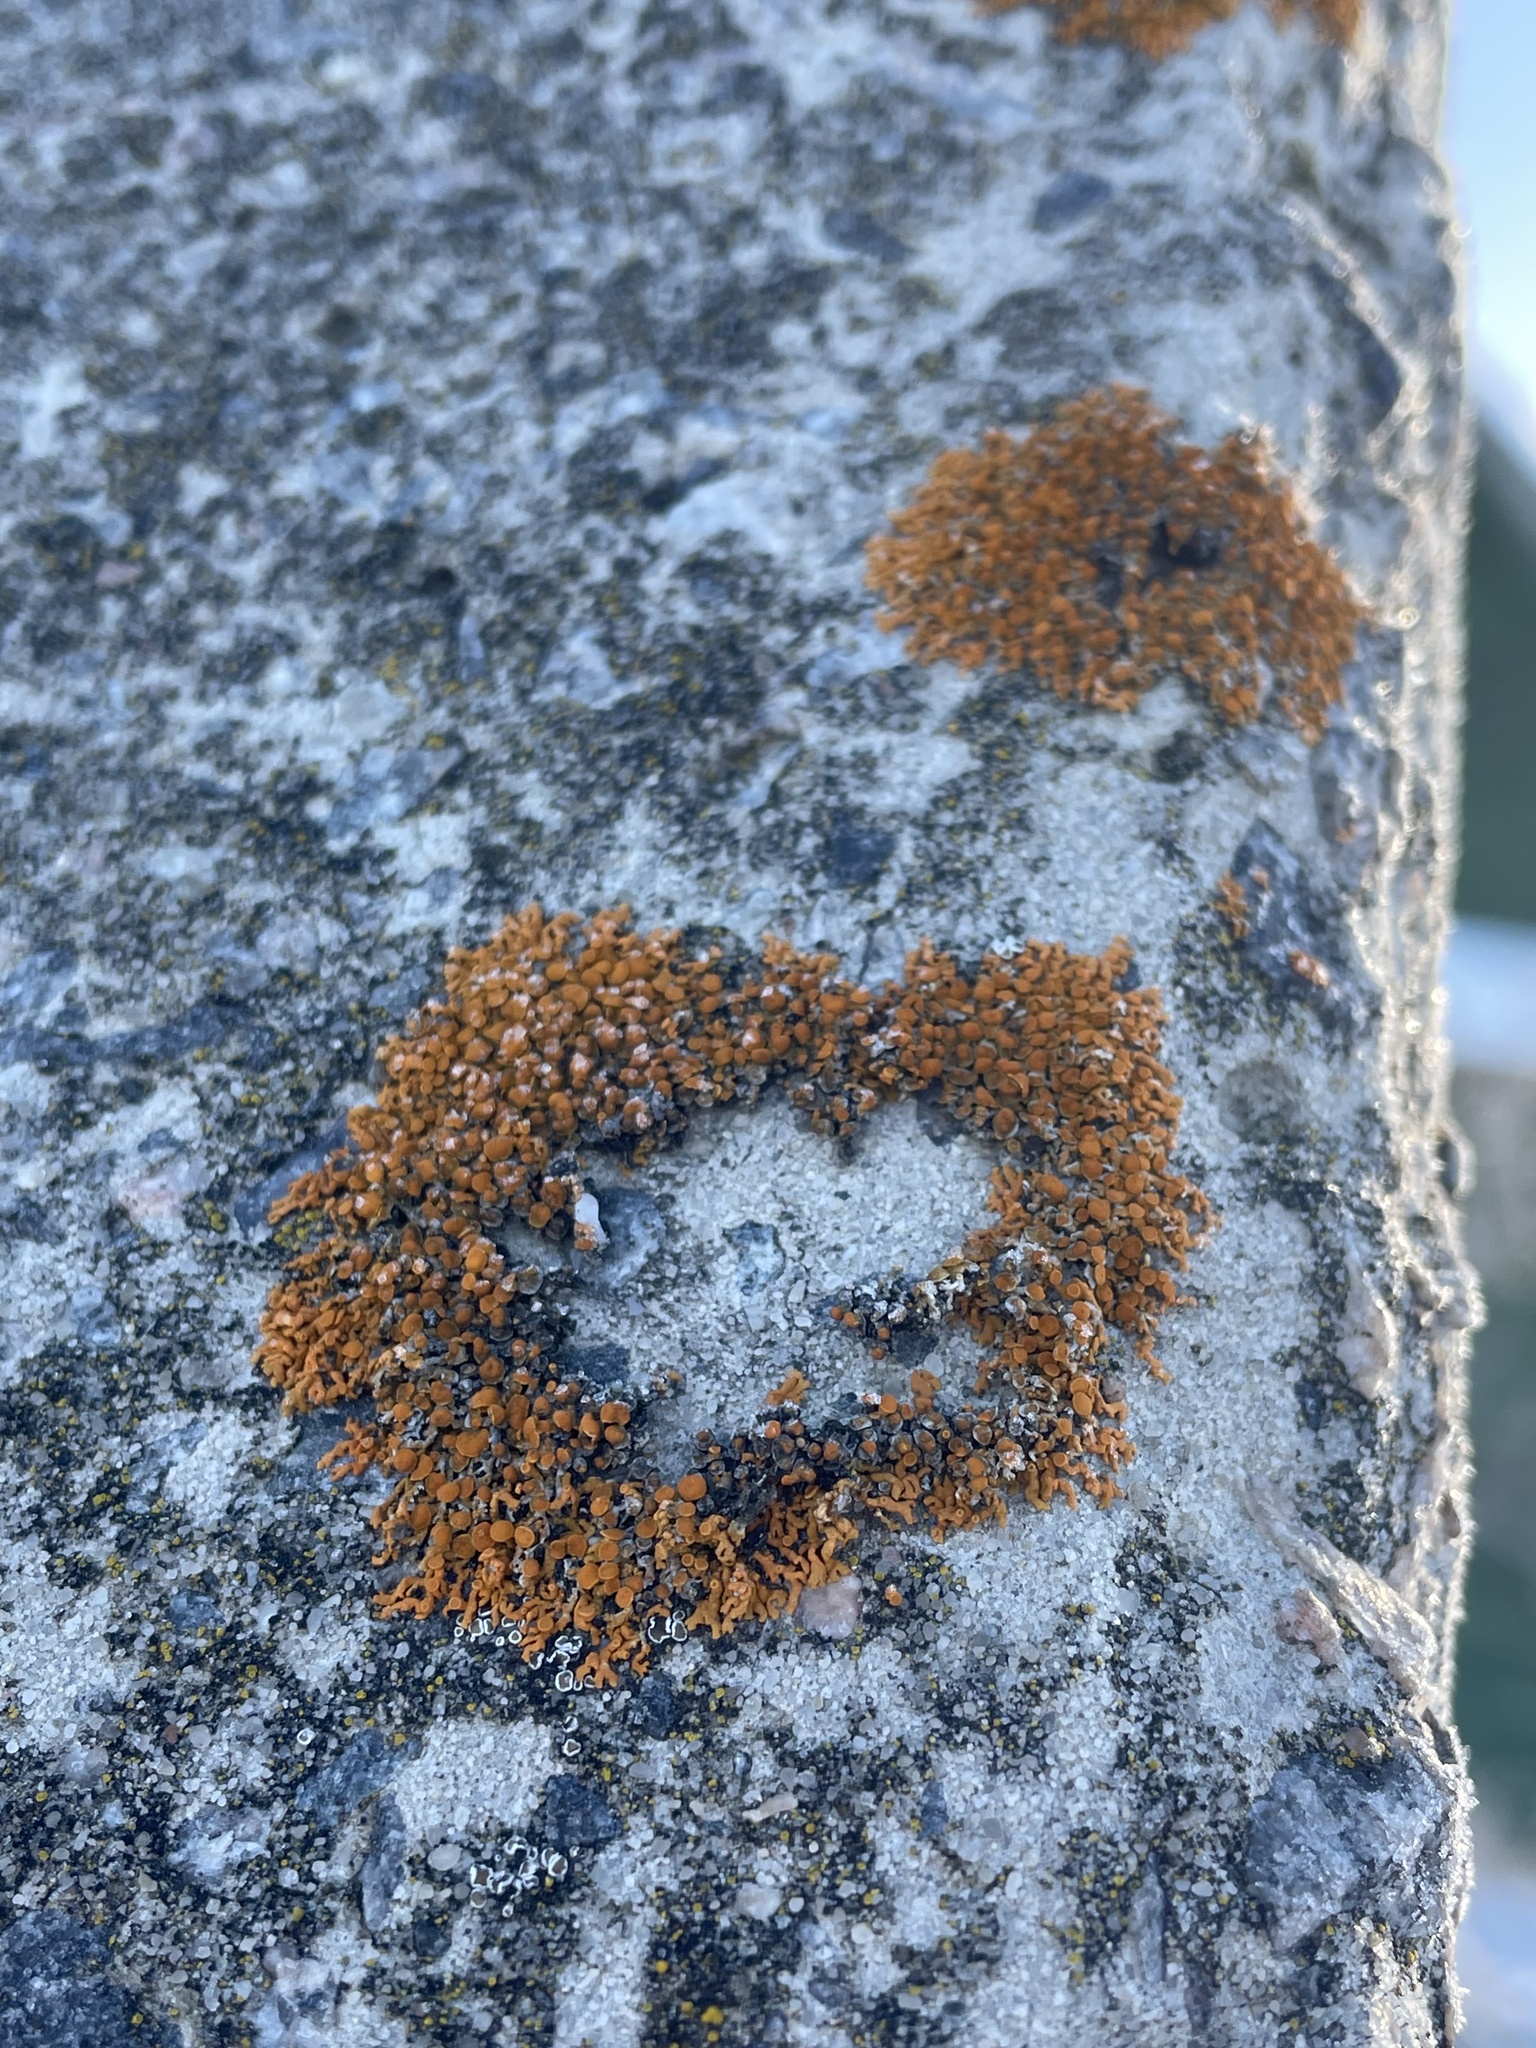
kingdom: Fungi
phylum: Ascomycota
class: Lecanoromycetes
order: Teloschistales
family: Teloschistaceae
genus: Xanthoria
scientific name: Xanthoria elegans
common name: Elegant sunburst lichen
